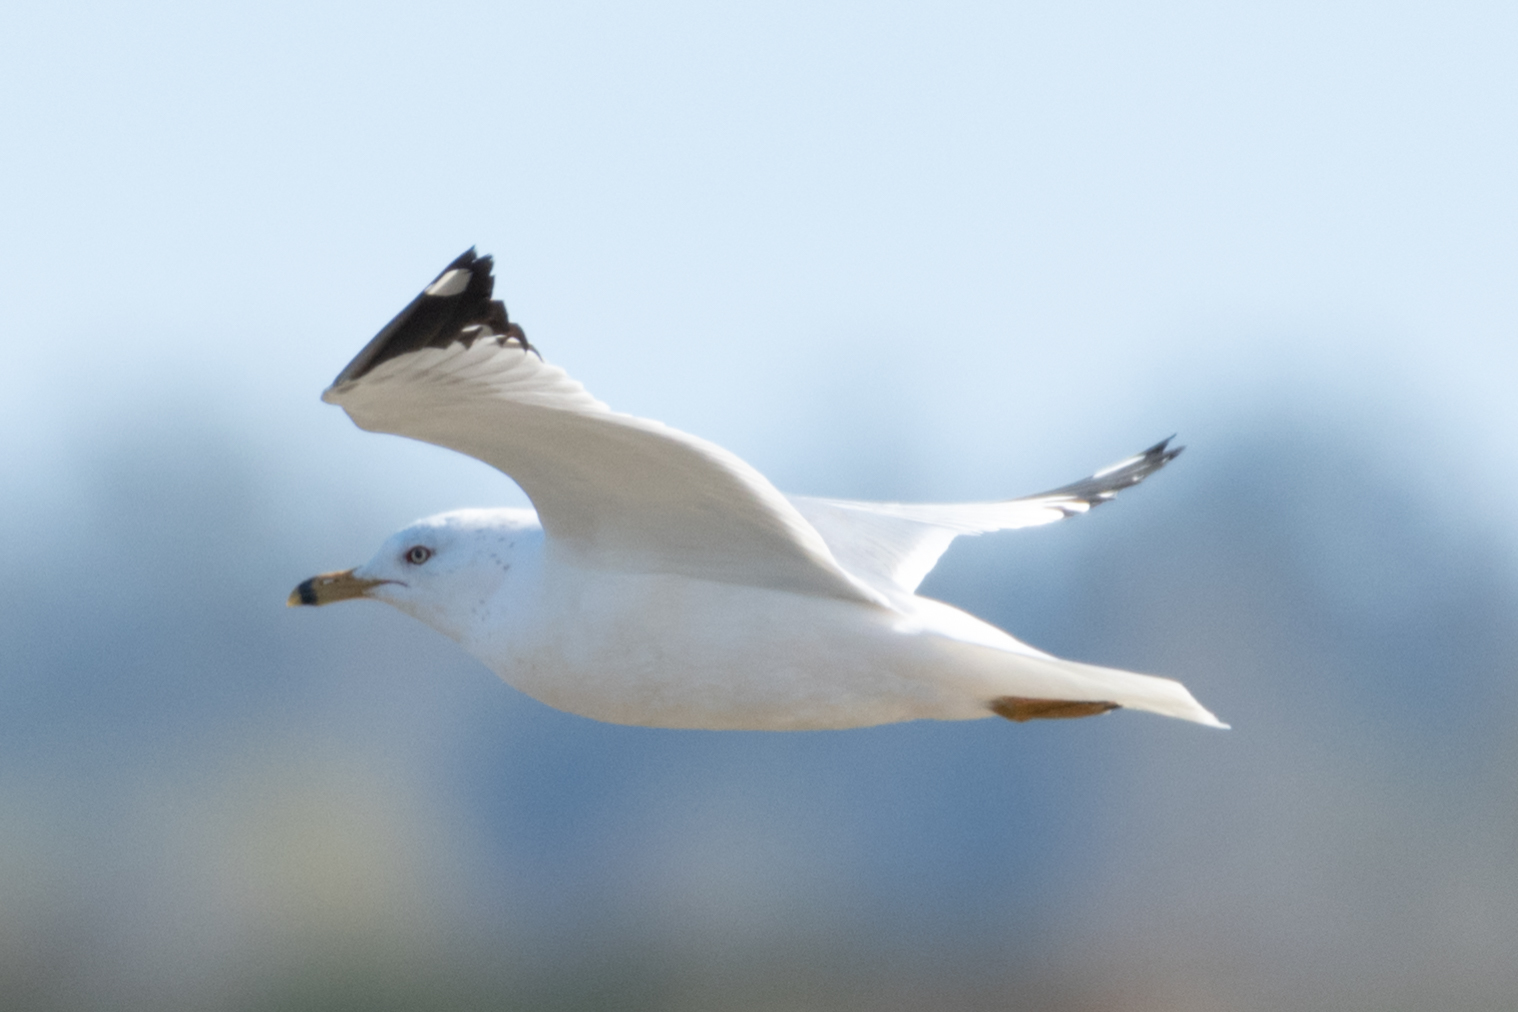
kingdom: Animalia
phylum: Chordata
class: Aves
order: Charadriiformes
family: Laridae
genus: Larus
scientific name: Larus delawarensis
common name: Ring-billed gull
